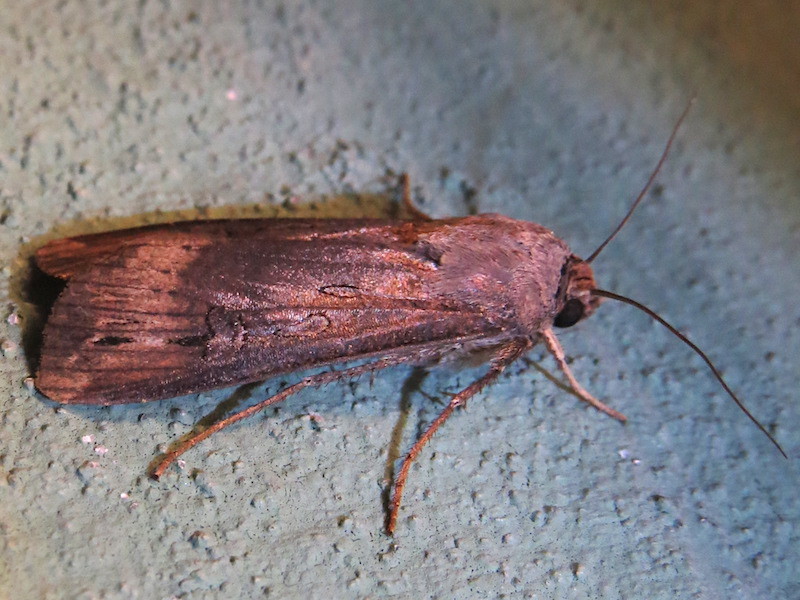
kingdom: Animalia
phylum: Arthropoda
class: Insecta
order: Lepidoptera
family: Noctuidae
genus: Agrotis
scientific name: Agrotis ipsilon
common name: Dark sword-grass
